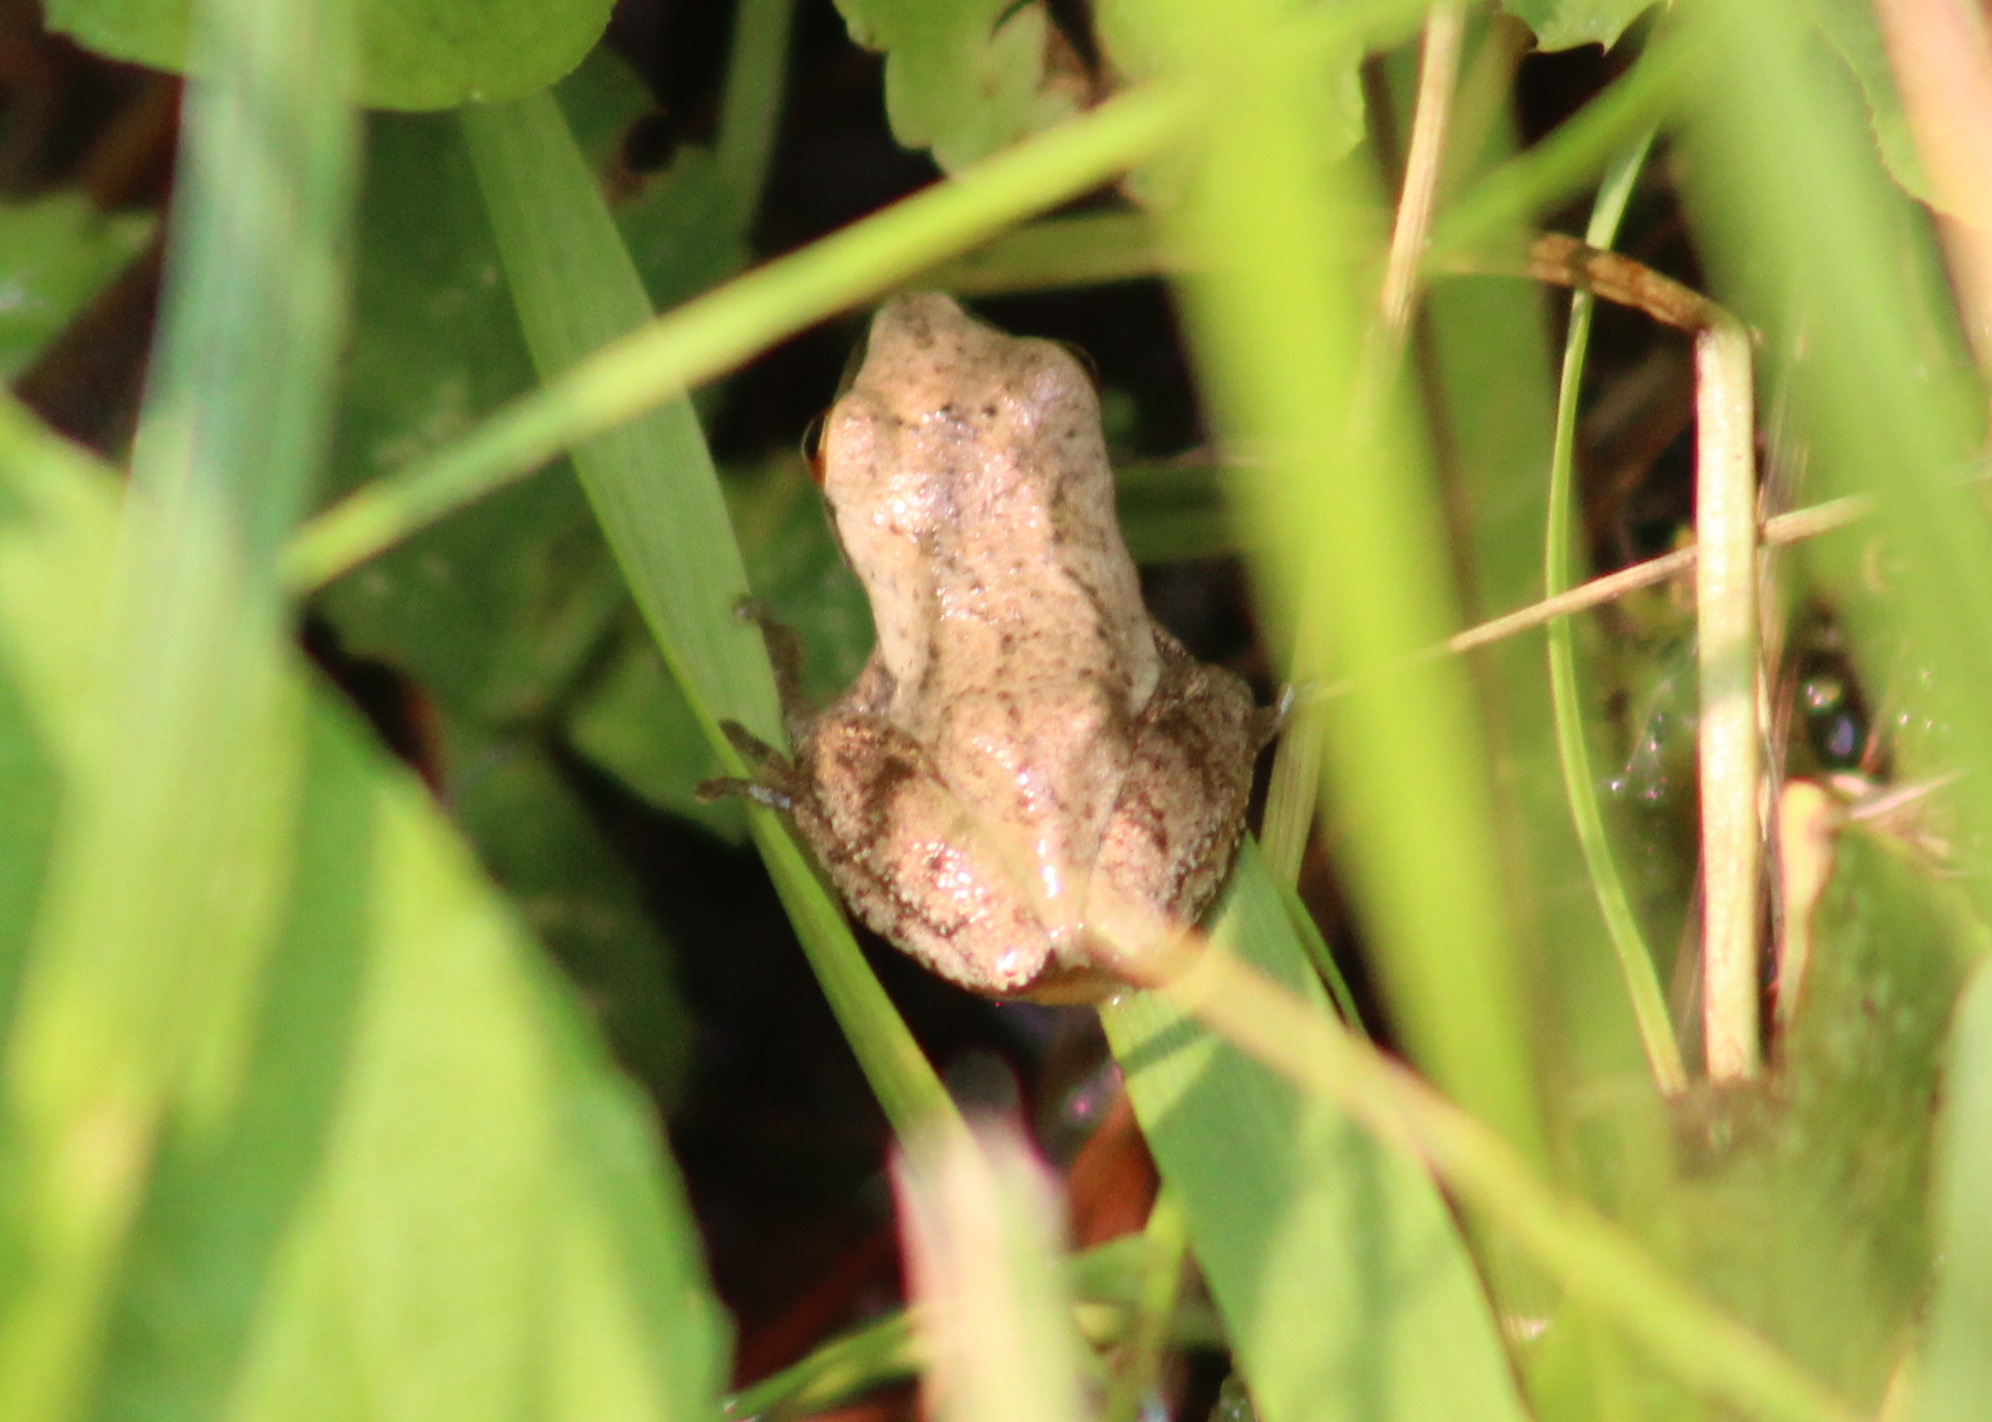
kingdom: Animalia
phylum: Chordata
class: Amphibia
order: Anura
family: Hylidae
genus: Pseudacris
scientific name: Pseudacris crucifer
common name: Spring peeper
